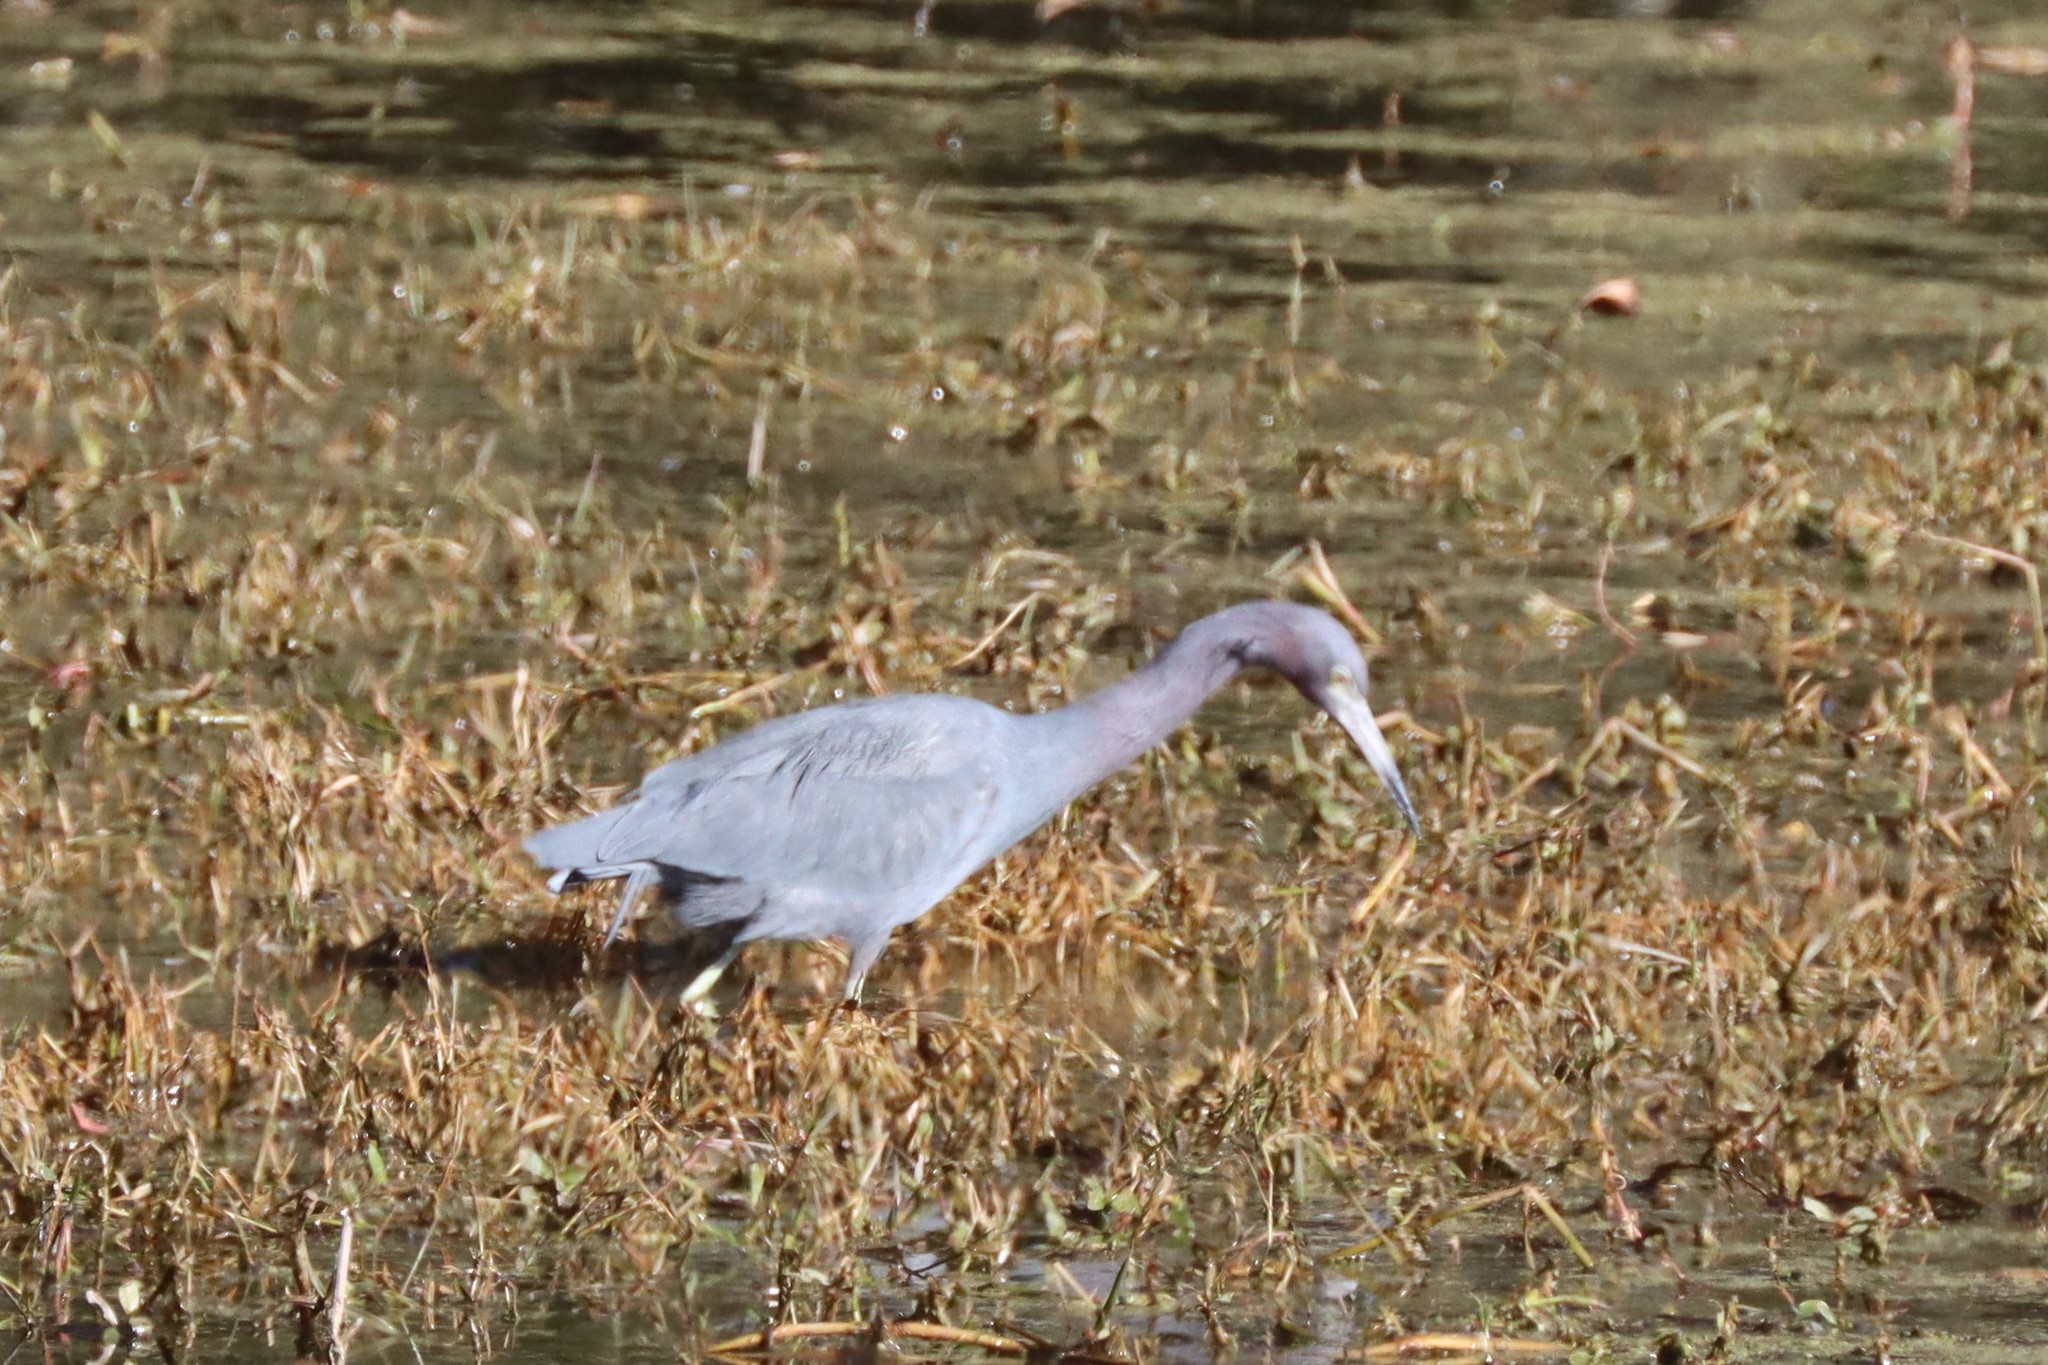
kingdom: Animalia
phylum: Chordata
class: Aves
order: Pelecaniformes
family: Ardeidae
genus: Egretta
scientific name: Egretta caerulea
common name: Little blue heron
